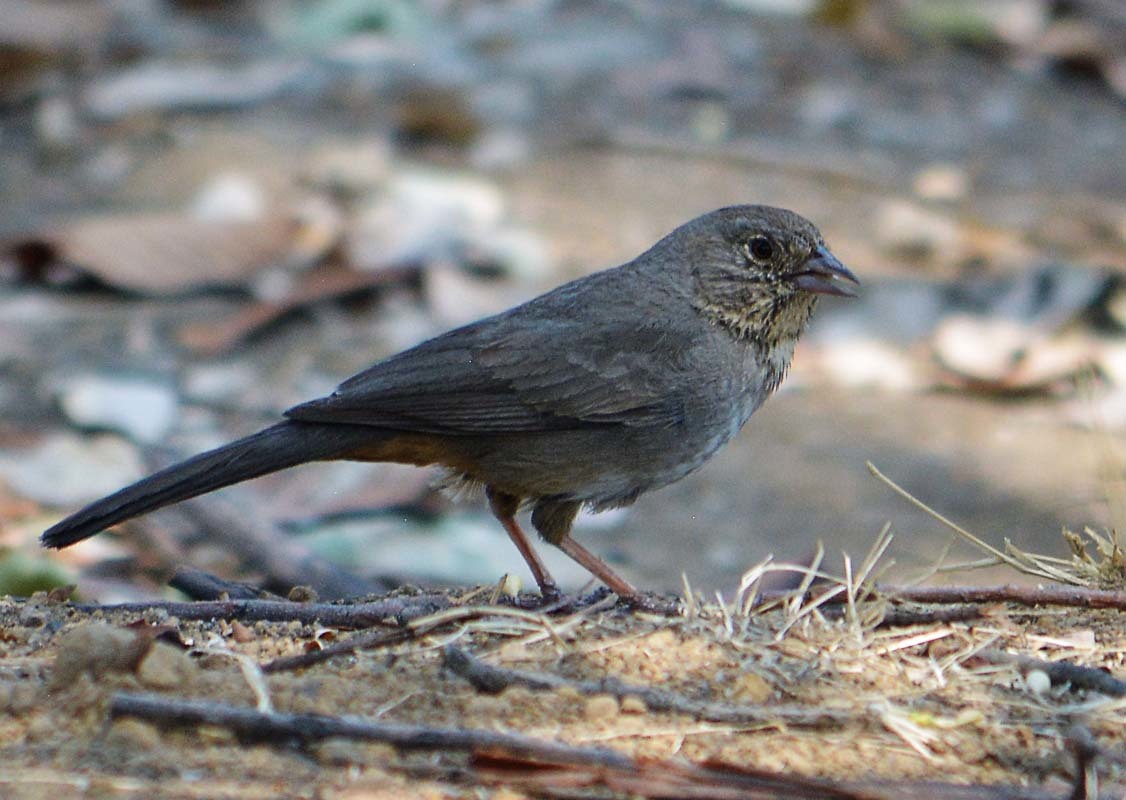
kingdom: Animalia
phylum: Chordata
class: Aves
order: Passeriformes
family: Passerellidae
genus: Melozone
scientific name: Melozone fusca
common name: Canyon towhee
